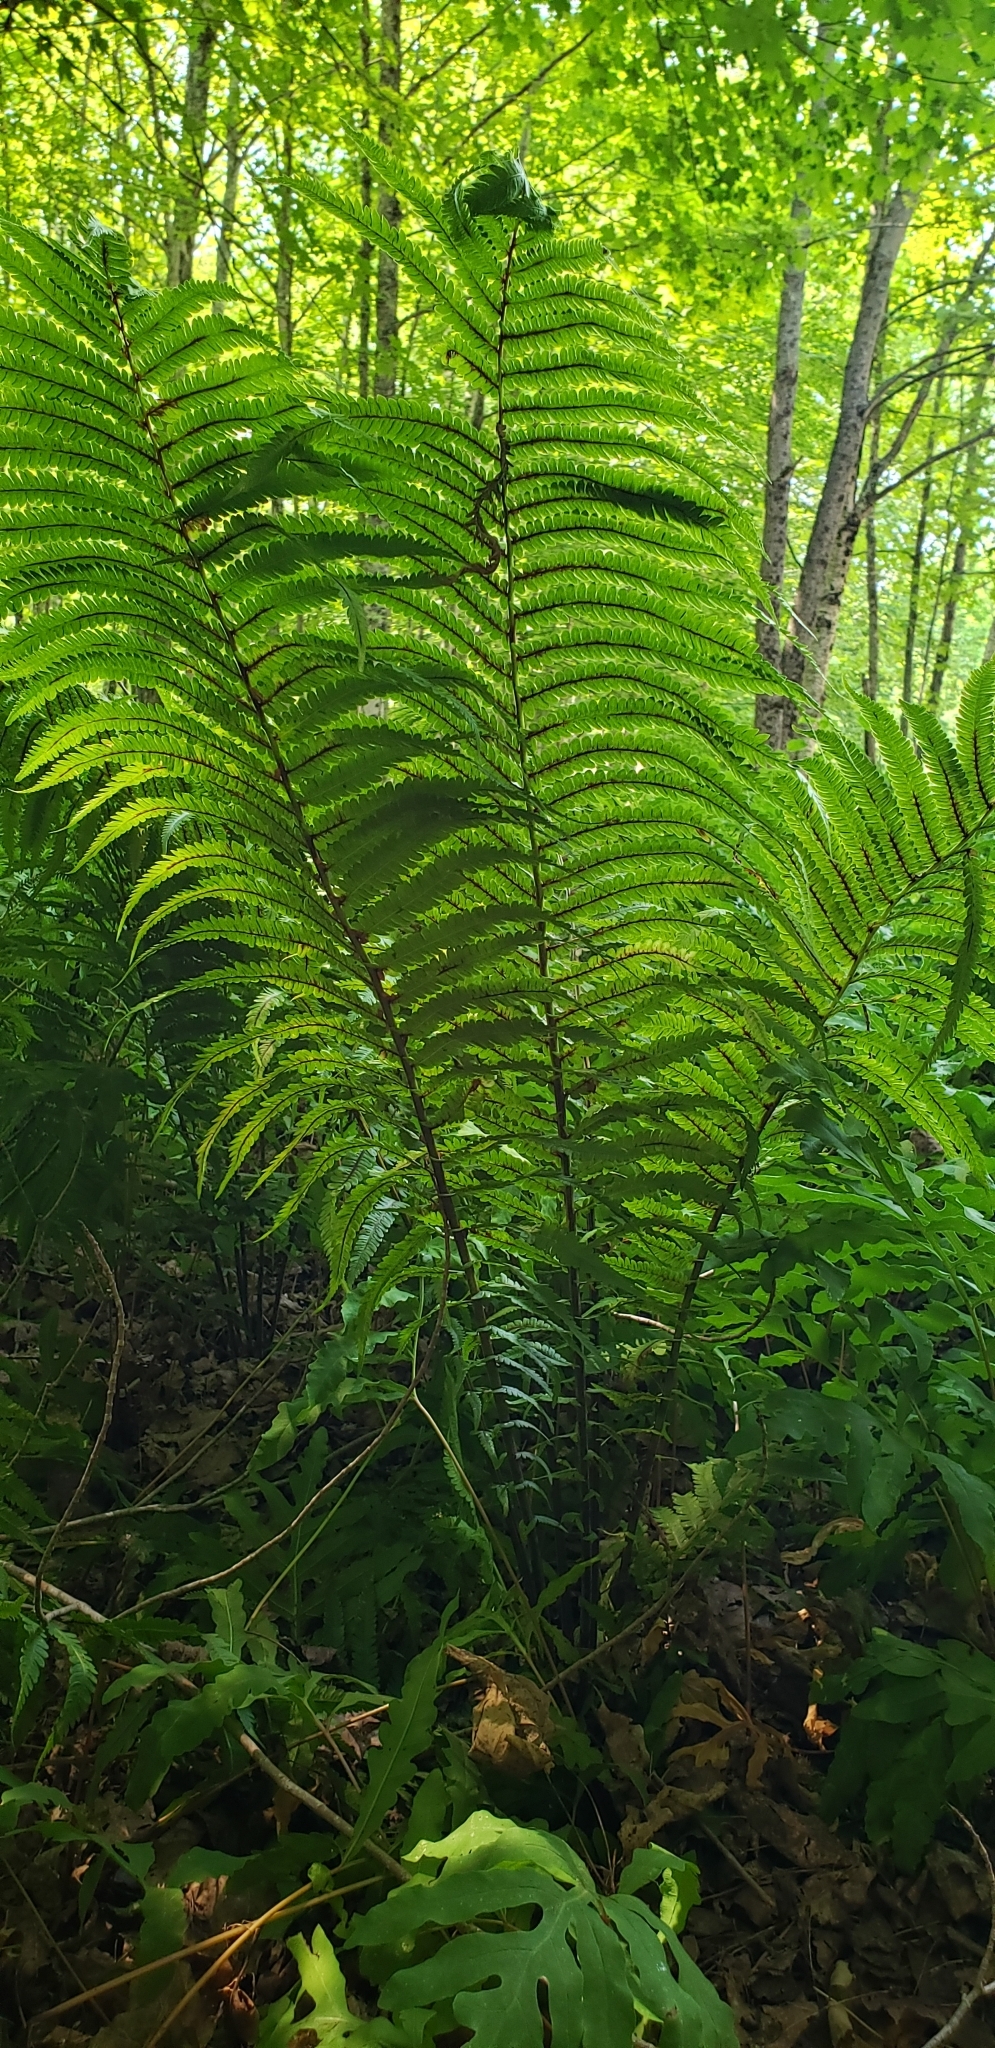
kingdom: Plantae
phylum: Tracheophyta
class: Polypodiopsida
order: Polypodiales
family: Onocleaceae
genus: Matteuccia
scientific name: Matteuccia struthiopteris
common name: Ostrich fern
